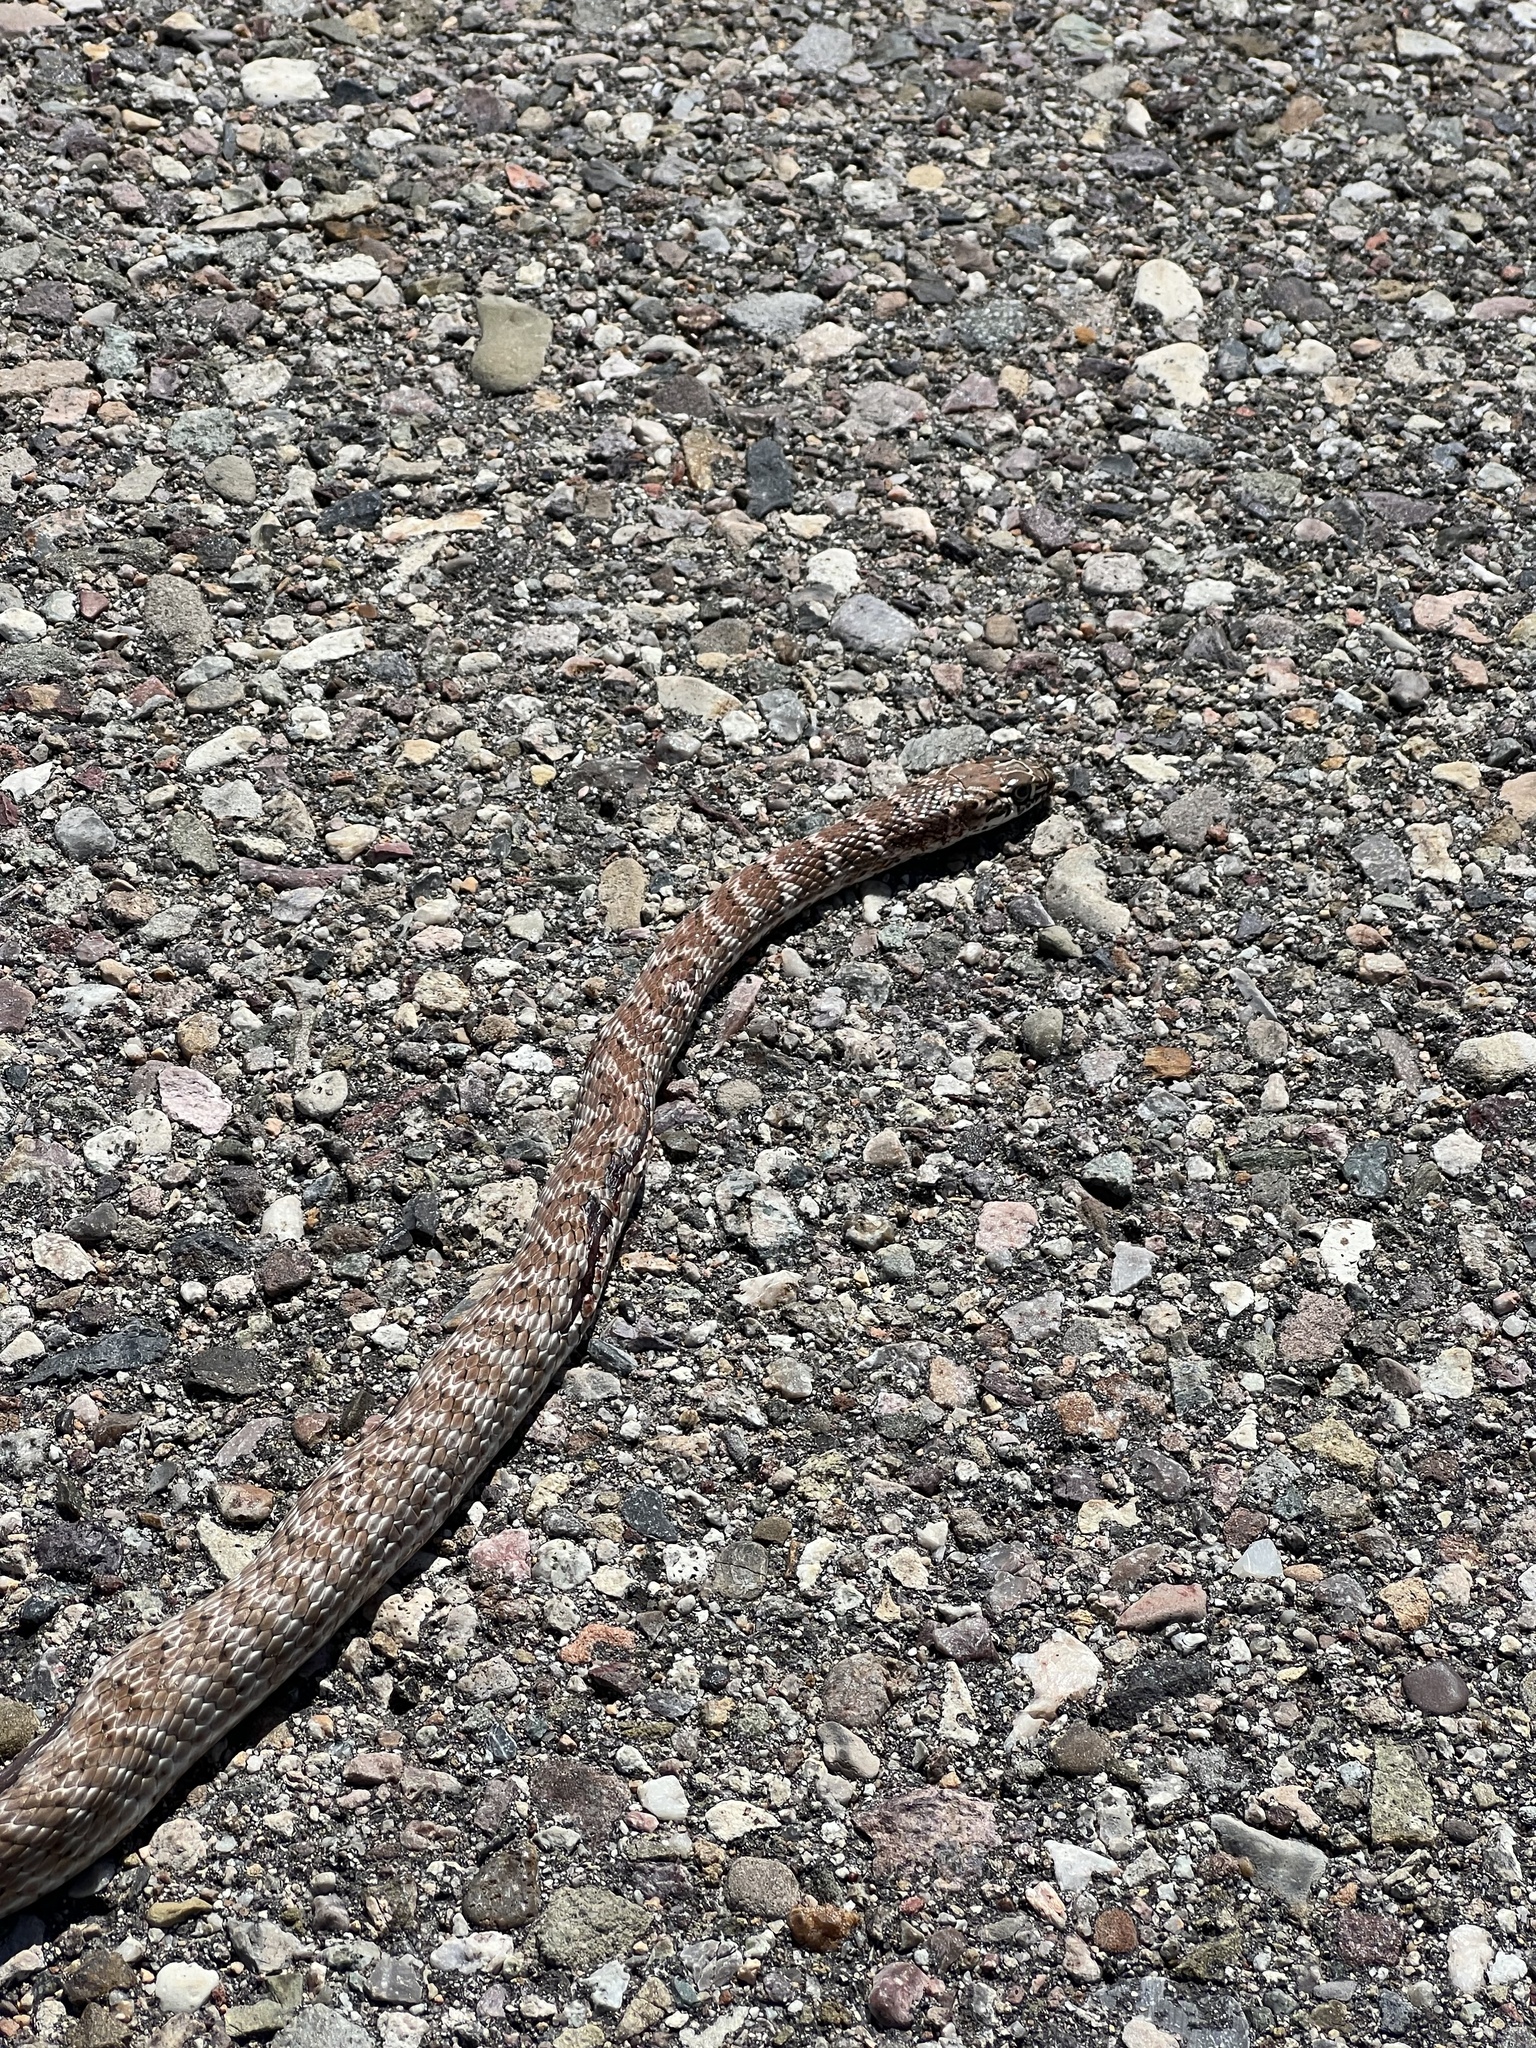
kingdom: Animalia
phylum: Chordata
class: Squamata
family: Colubridae
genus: Masticophis
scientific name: Masticophis flagellum
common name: Coachwhip
